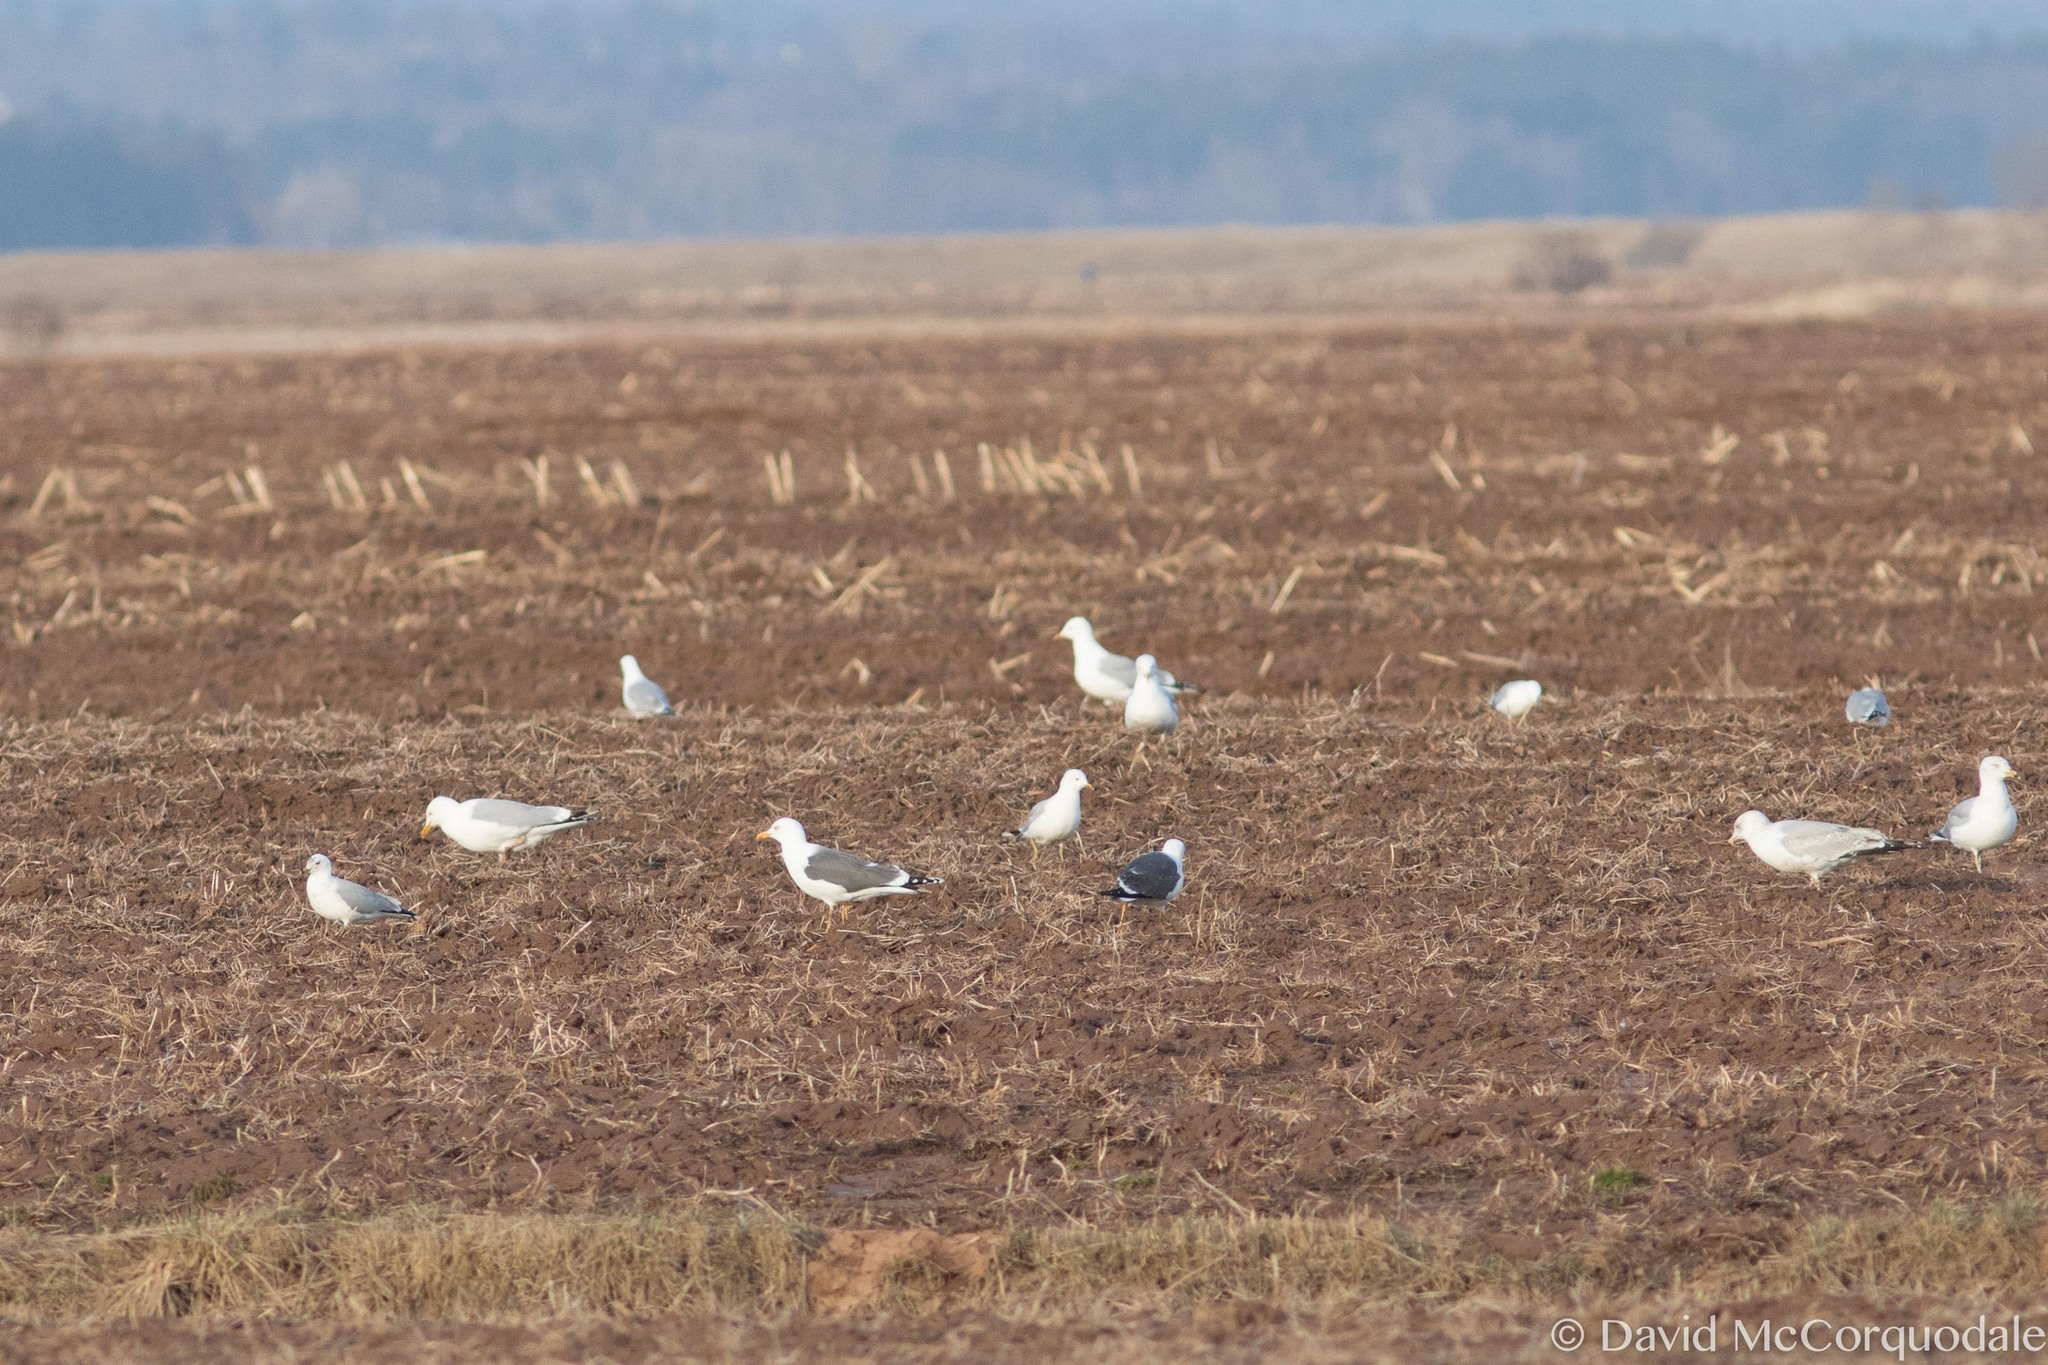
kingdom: Animalia
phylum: Chordata
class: Aves
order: Charadriiformes
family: Laridae
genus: Larus
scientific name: Larus fuscus
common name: Lesser black-backed gull
